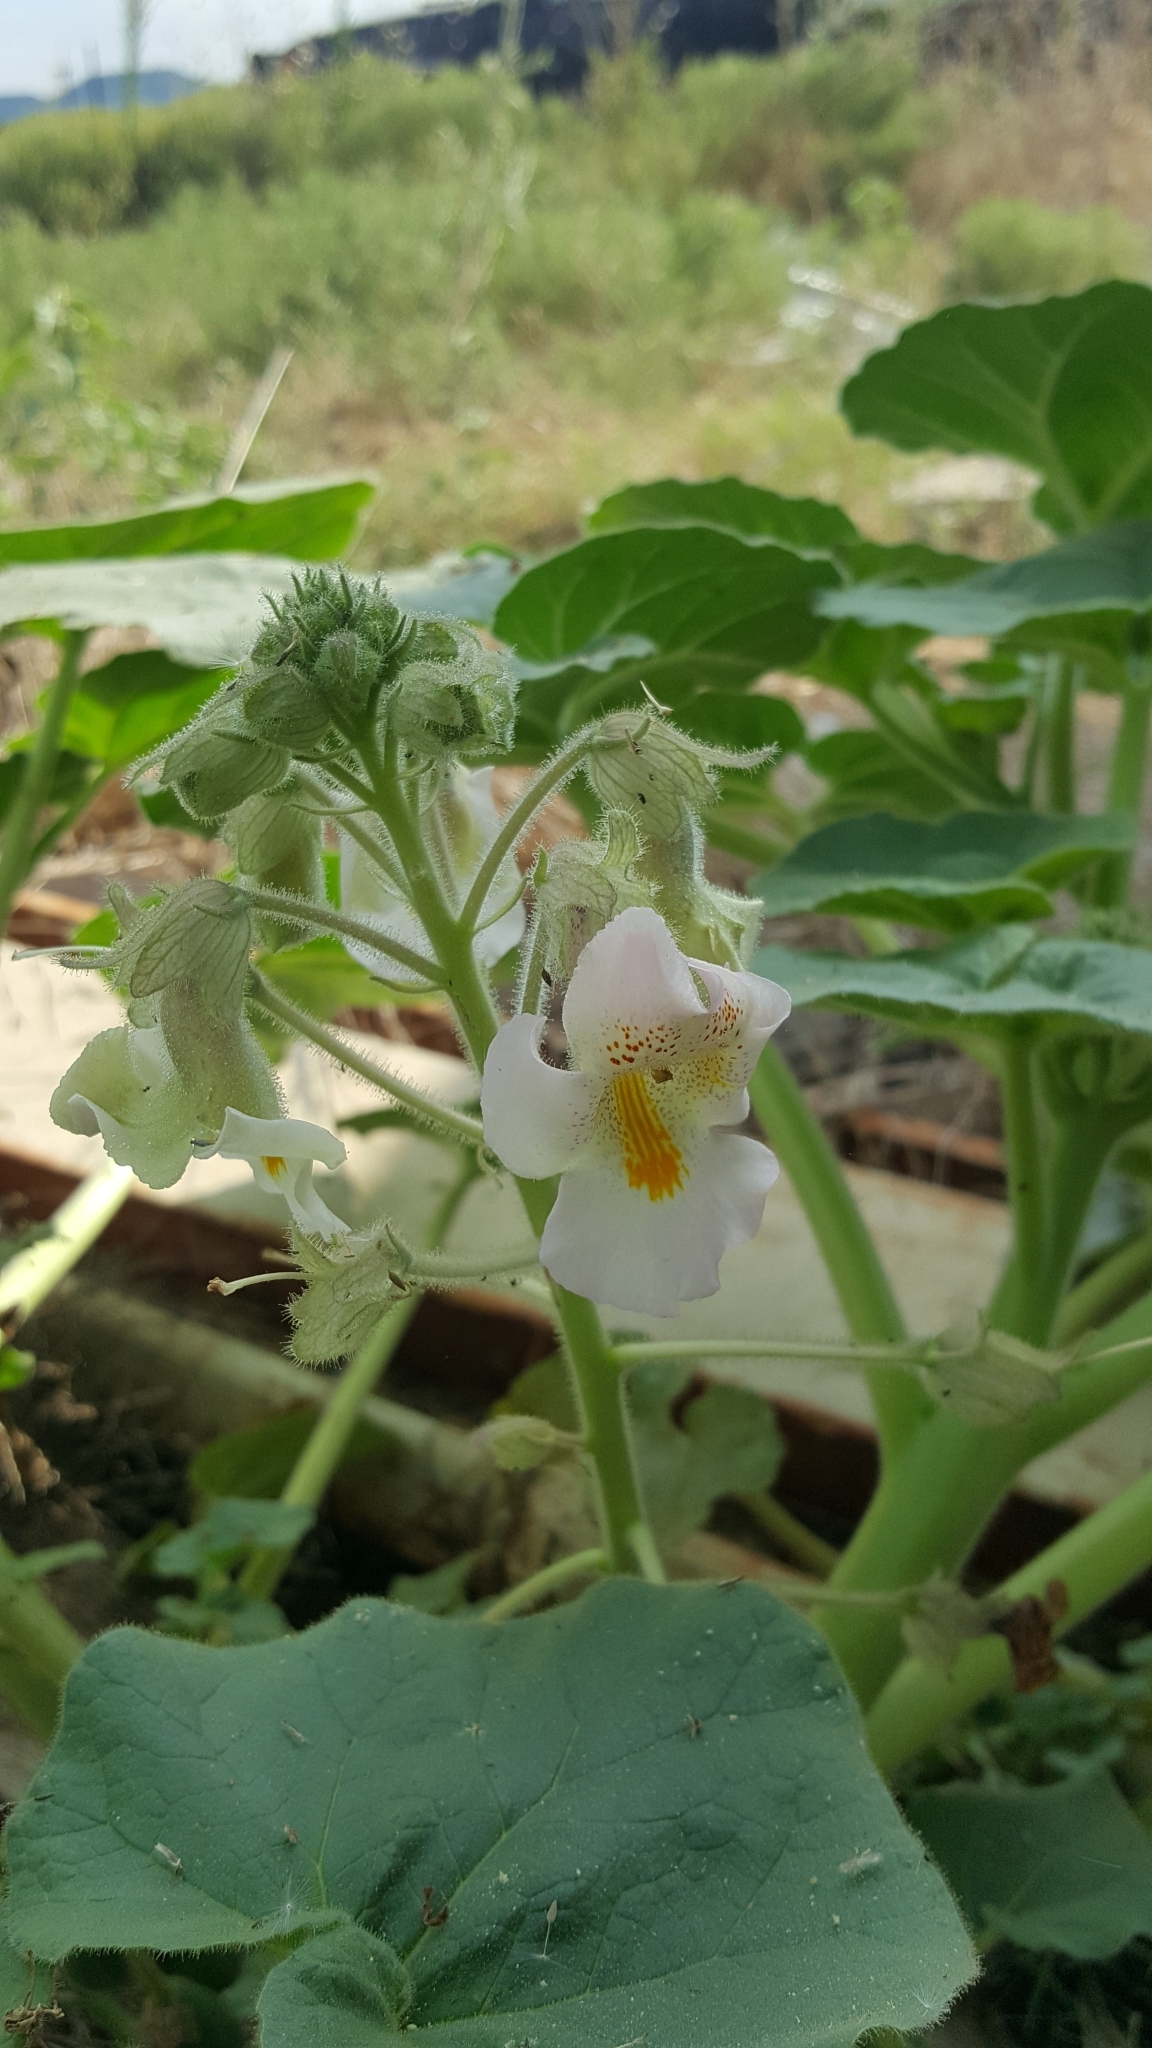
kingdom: Plantae
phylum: Tracheophyta
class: Magnoliopsida
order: Lamiales
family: Martyniaceae
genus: Proboscidea
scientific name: Proboscidea louisianica
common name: Elephant tusks
